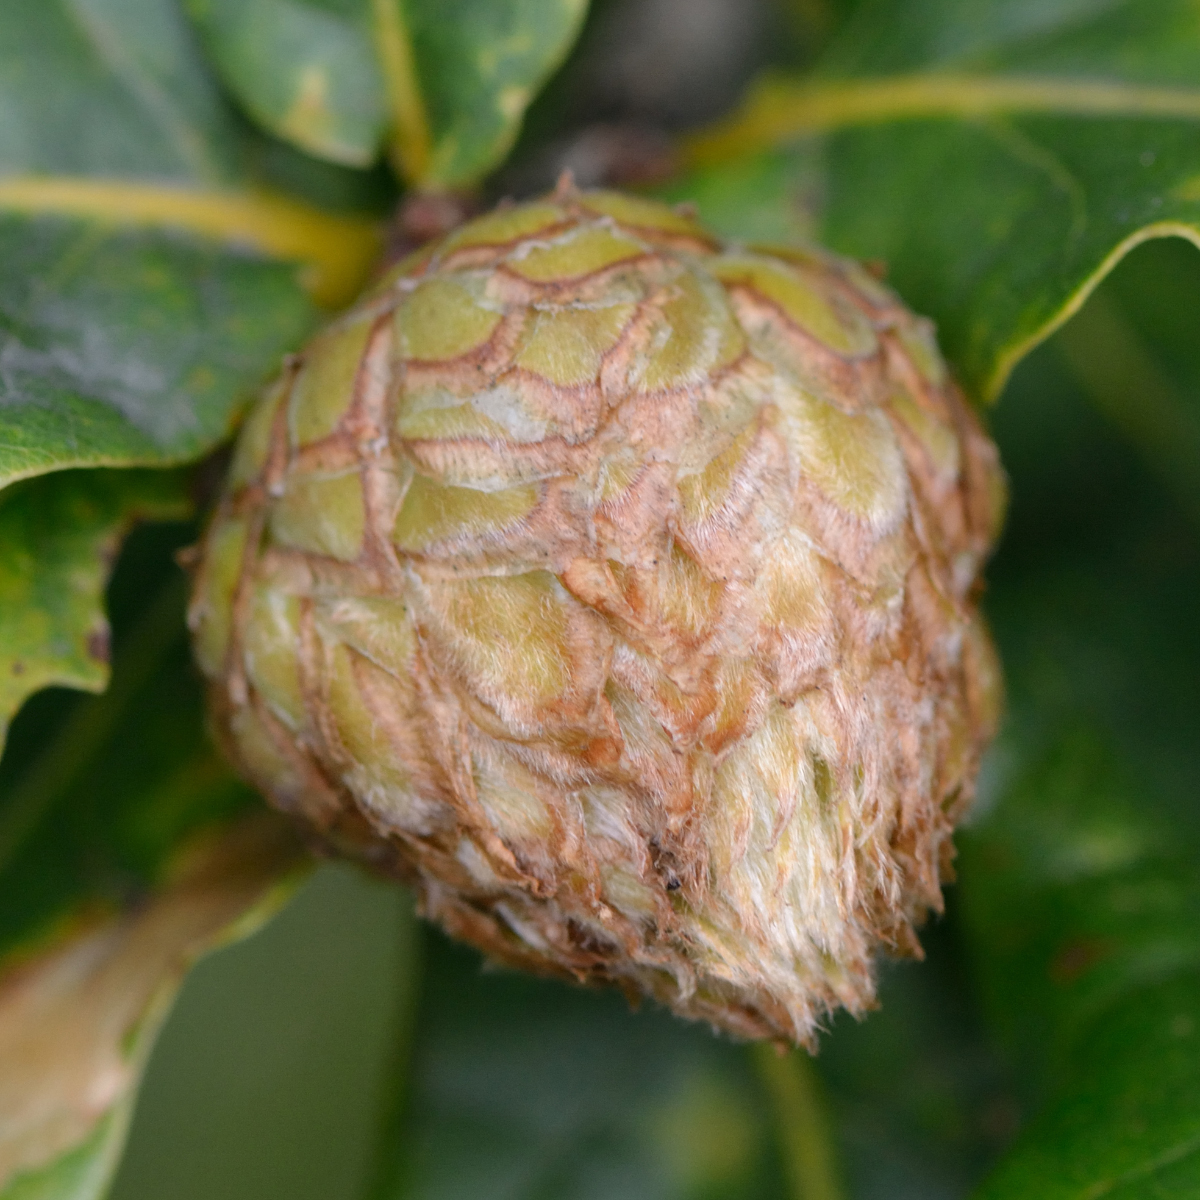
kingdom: Animalia
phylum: Arthropoda
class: Insecta
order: Hymenoptera
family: Cynipidae
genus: Andricus
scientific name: Andricus foecundatrix
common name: Artichoke gall
